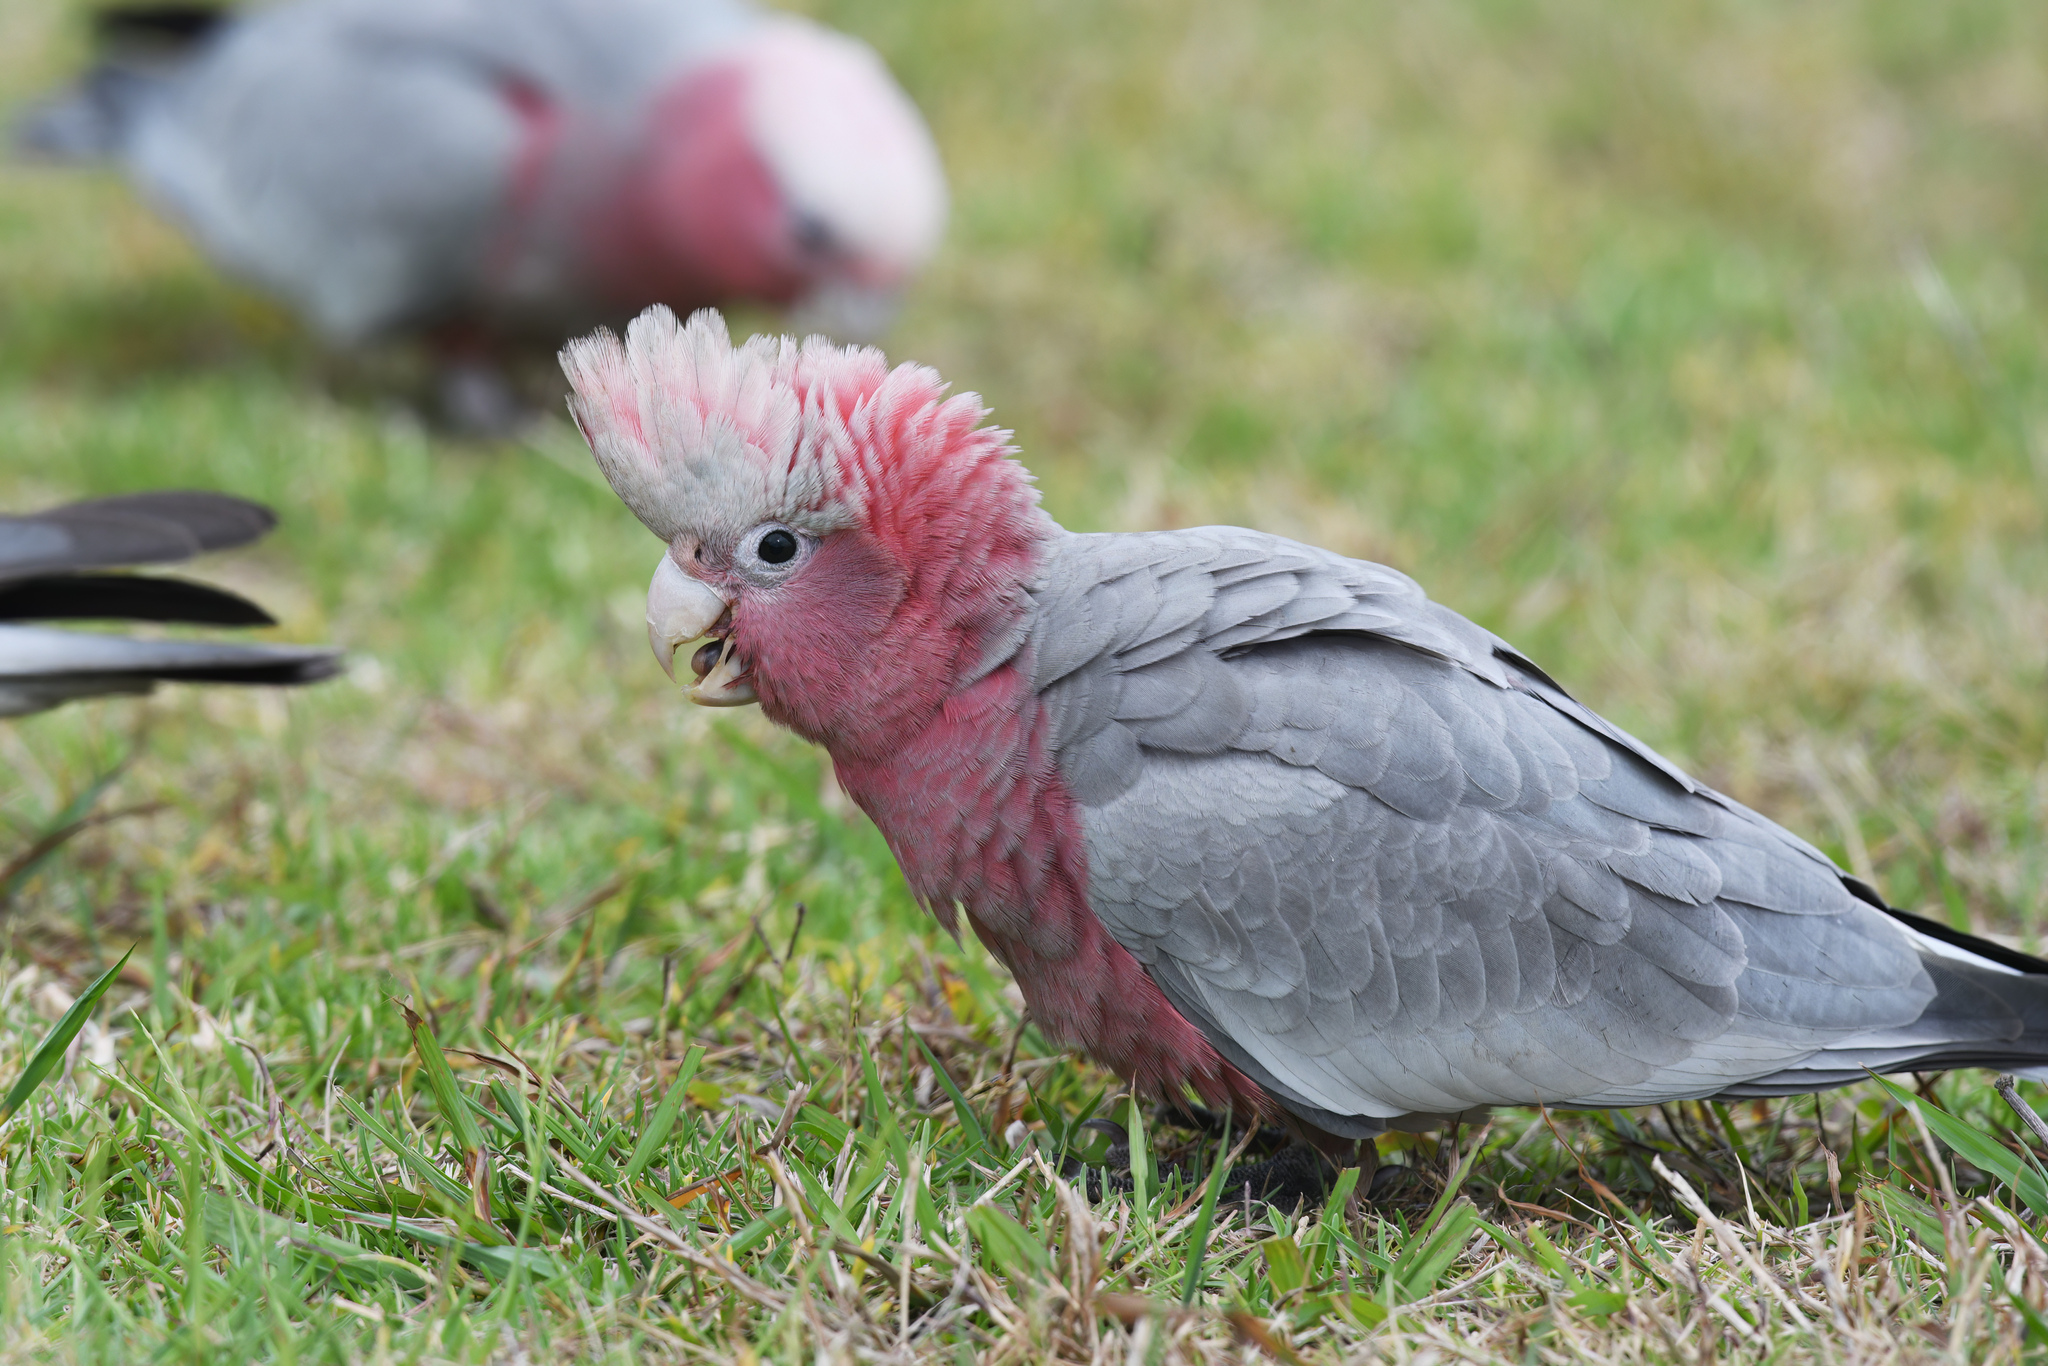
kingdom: Animalia
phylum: Chordata
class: Aves
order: Psittaciformes
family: Psittacidae
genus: Eolophus
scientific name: Eolophus roseicapilla
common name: Galah
